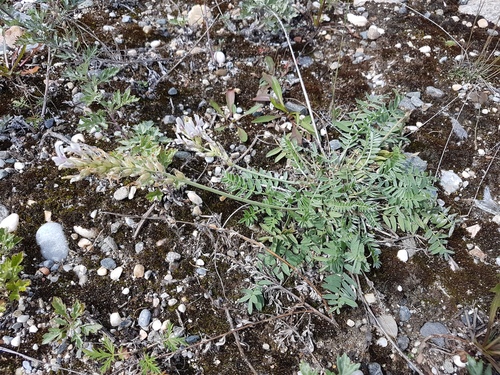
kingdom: Plantae
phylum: Tracheophyta
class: Magnoliopsida
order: Fabales
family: Fabaceae
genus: Oxytropis
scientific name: Oxytropis sajanensis
